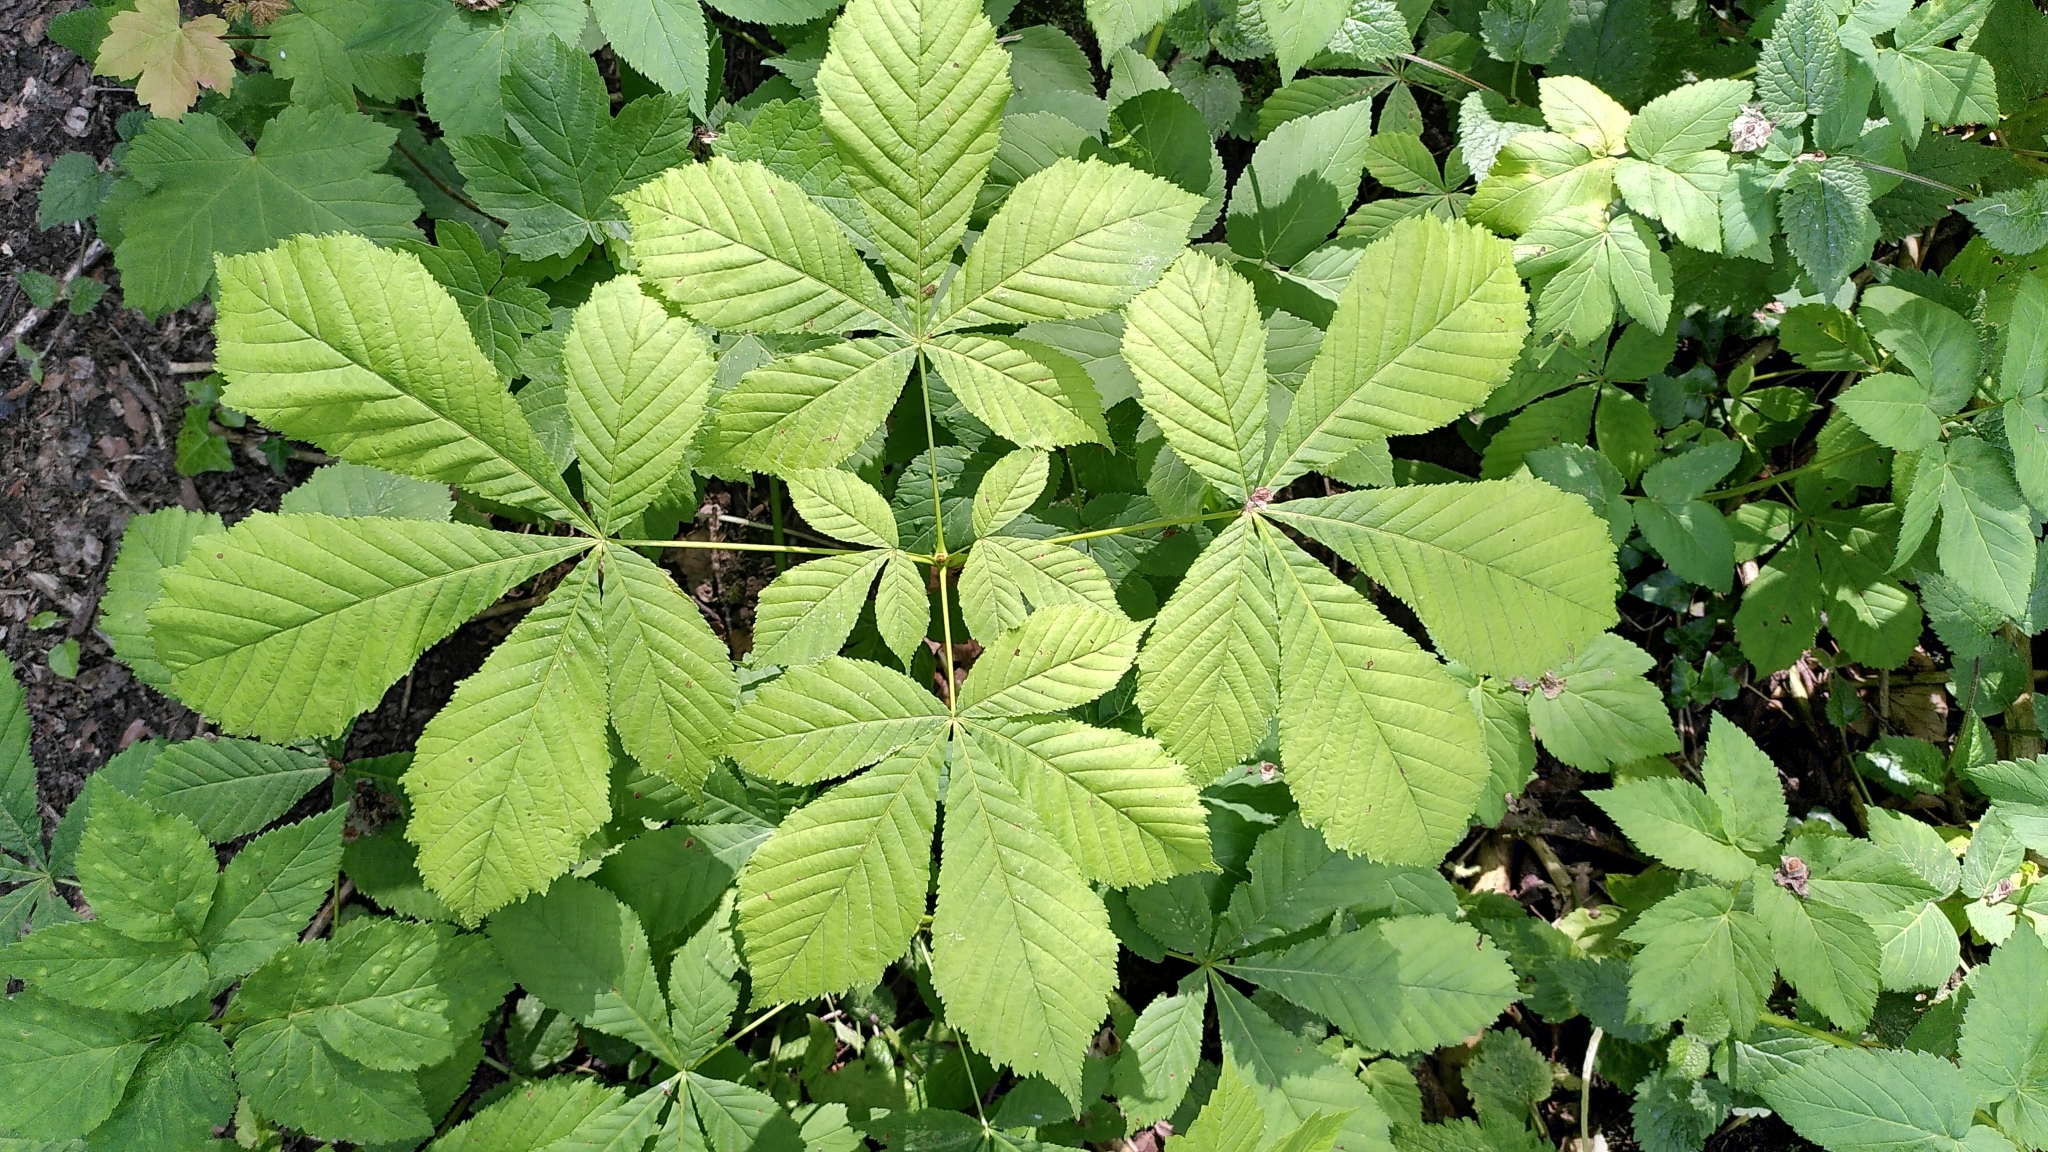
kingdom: Plantae
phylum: Tracheophyta
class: Magnoliopsida
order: Sapindales
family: Sapindaceae
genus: Aesculus
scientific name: Aesculus hippocastanum
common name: Horse-chestnut
